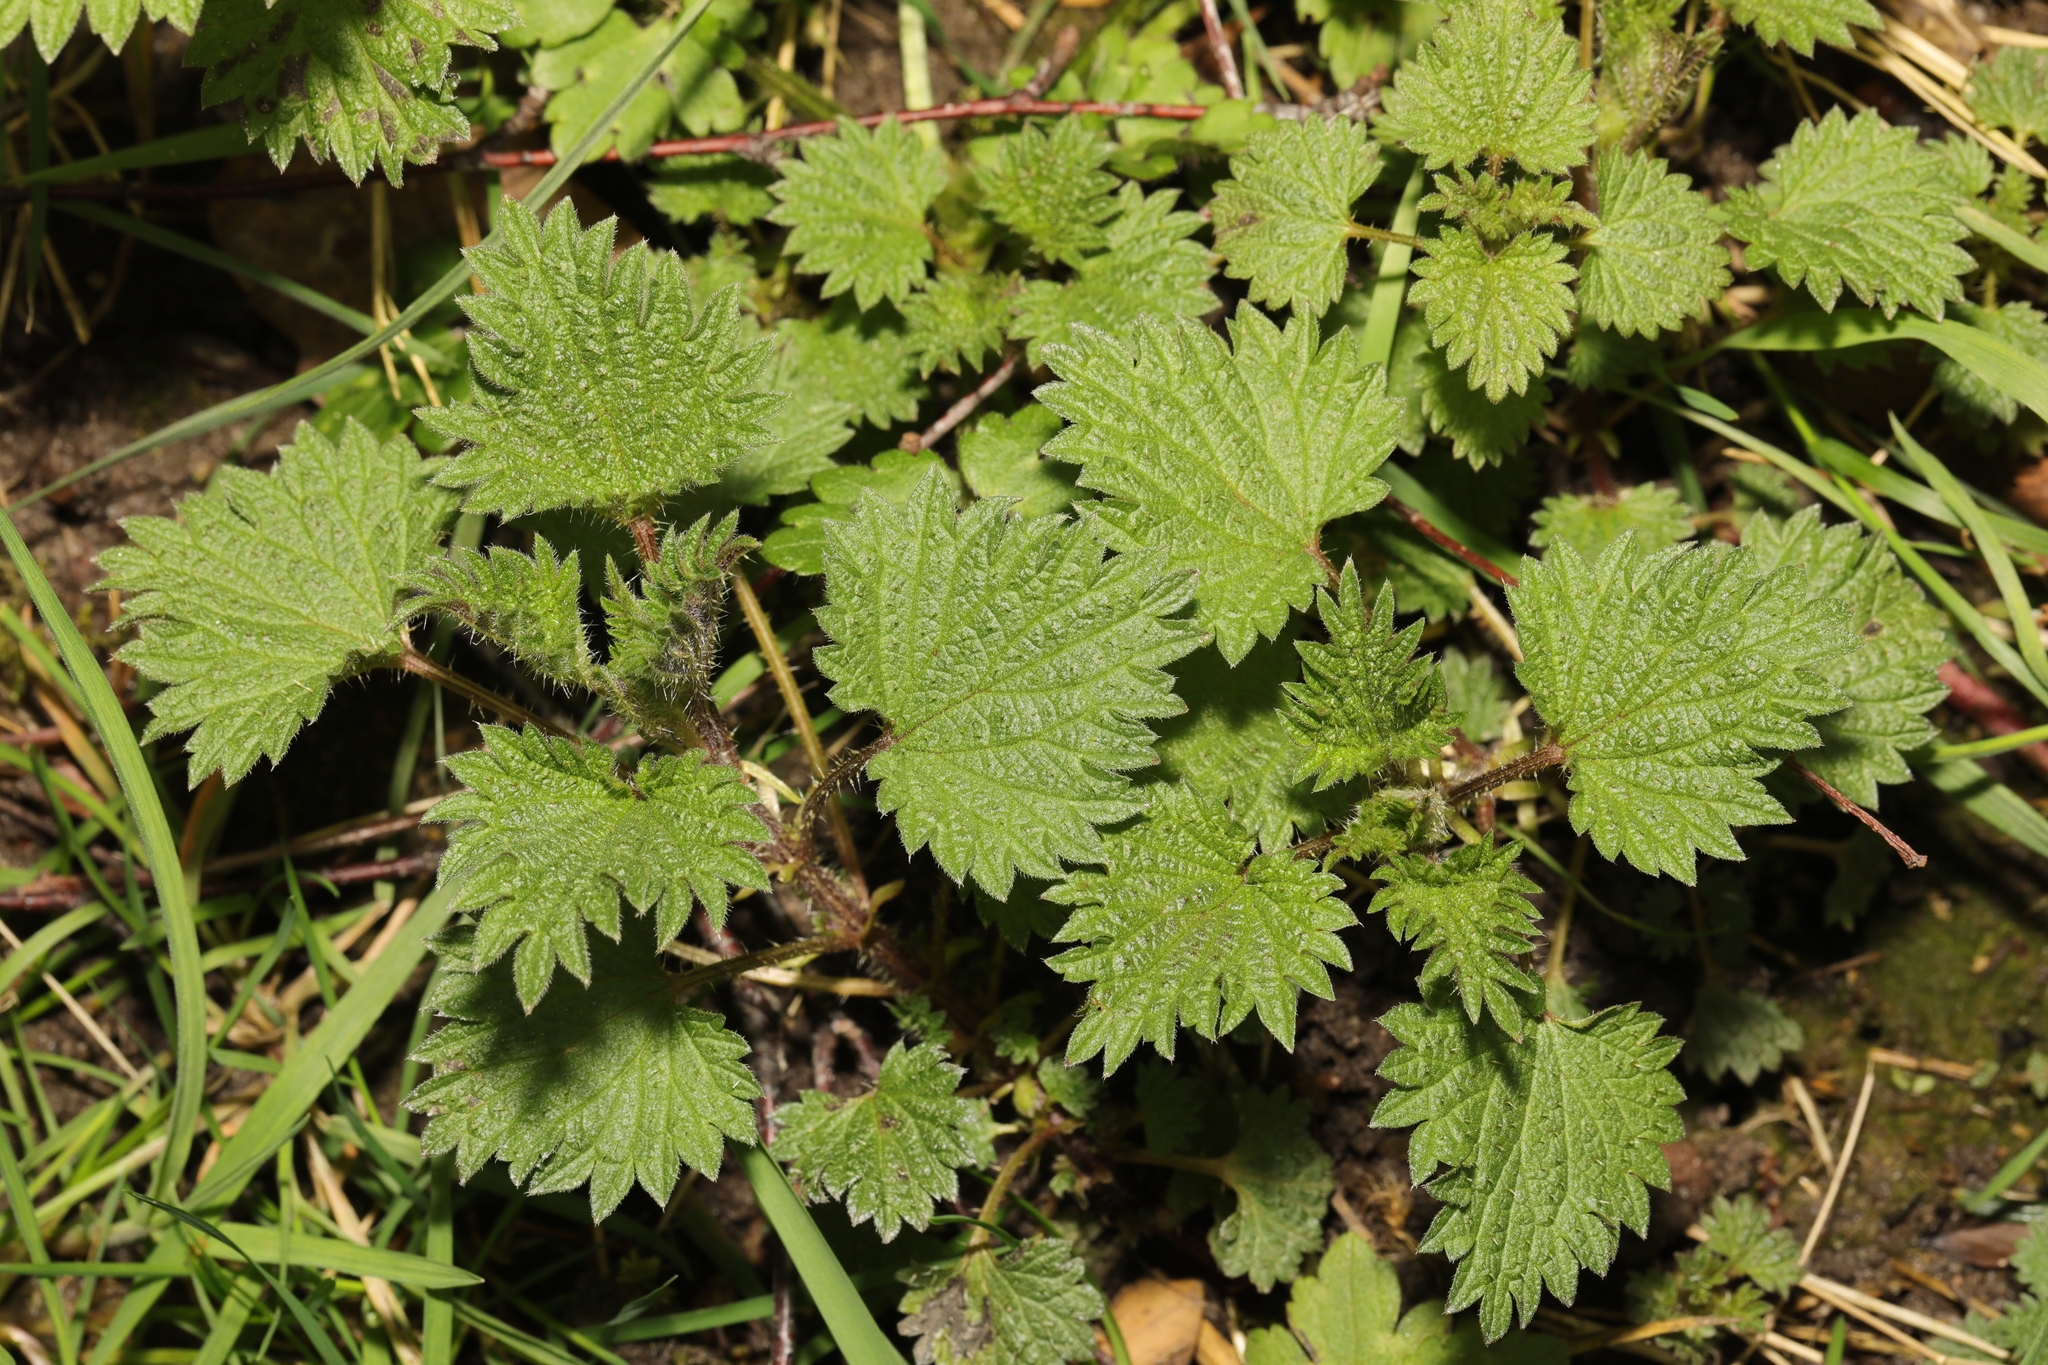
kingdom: Plantae
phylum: Tracheophyta
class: Magnoliopsida
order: Rosales
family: Urticaceae
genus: Urtica
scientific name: Urtica dioica
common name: Common nettle
